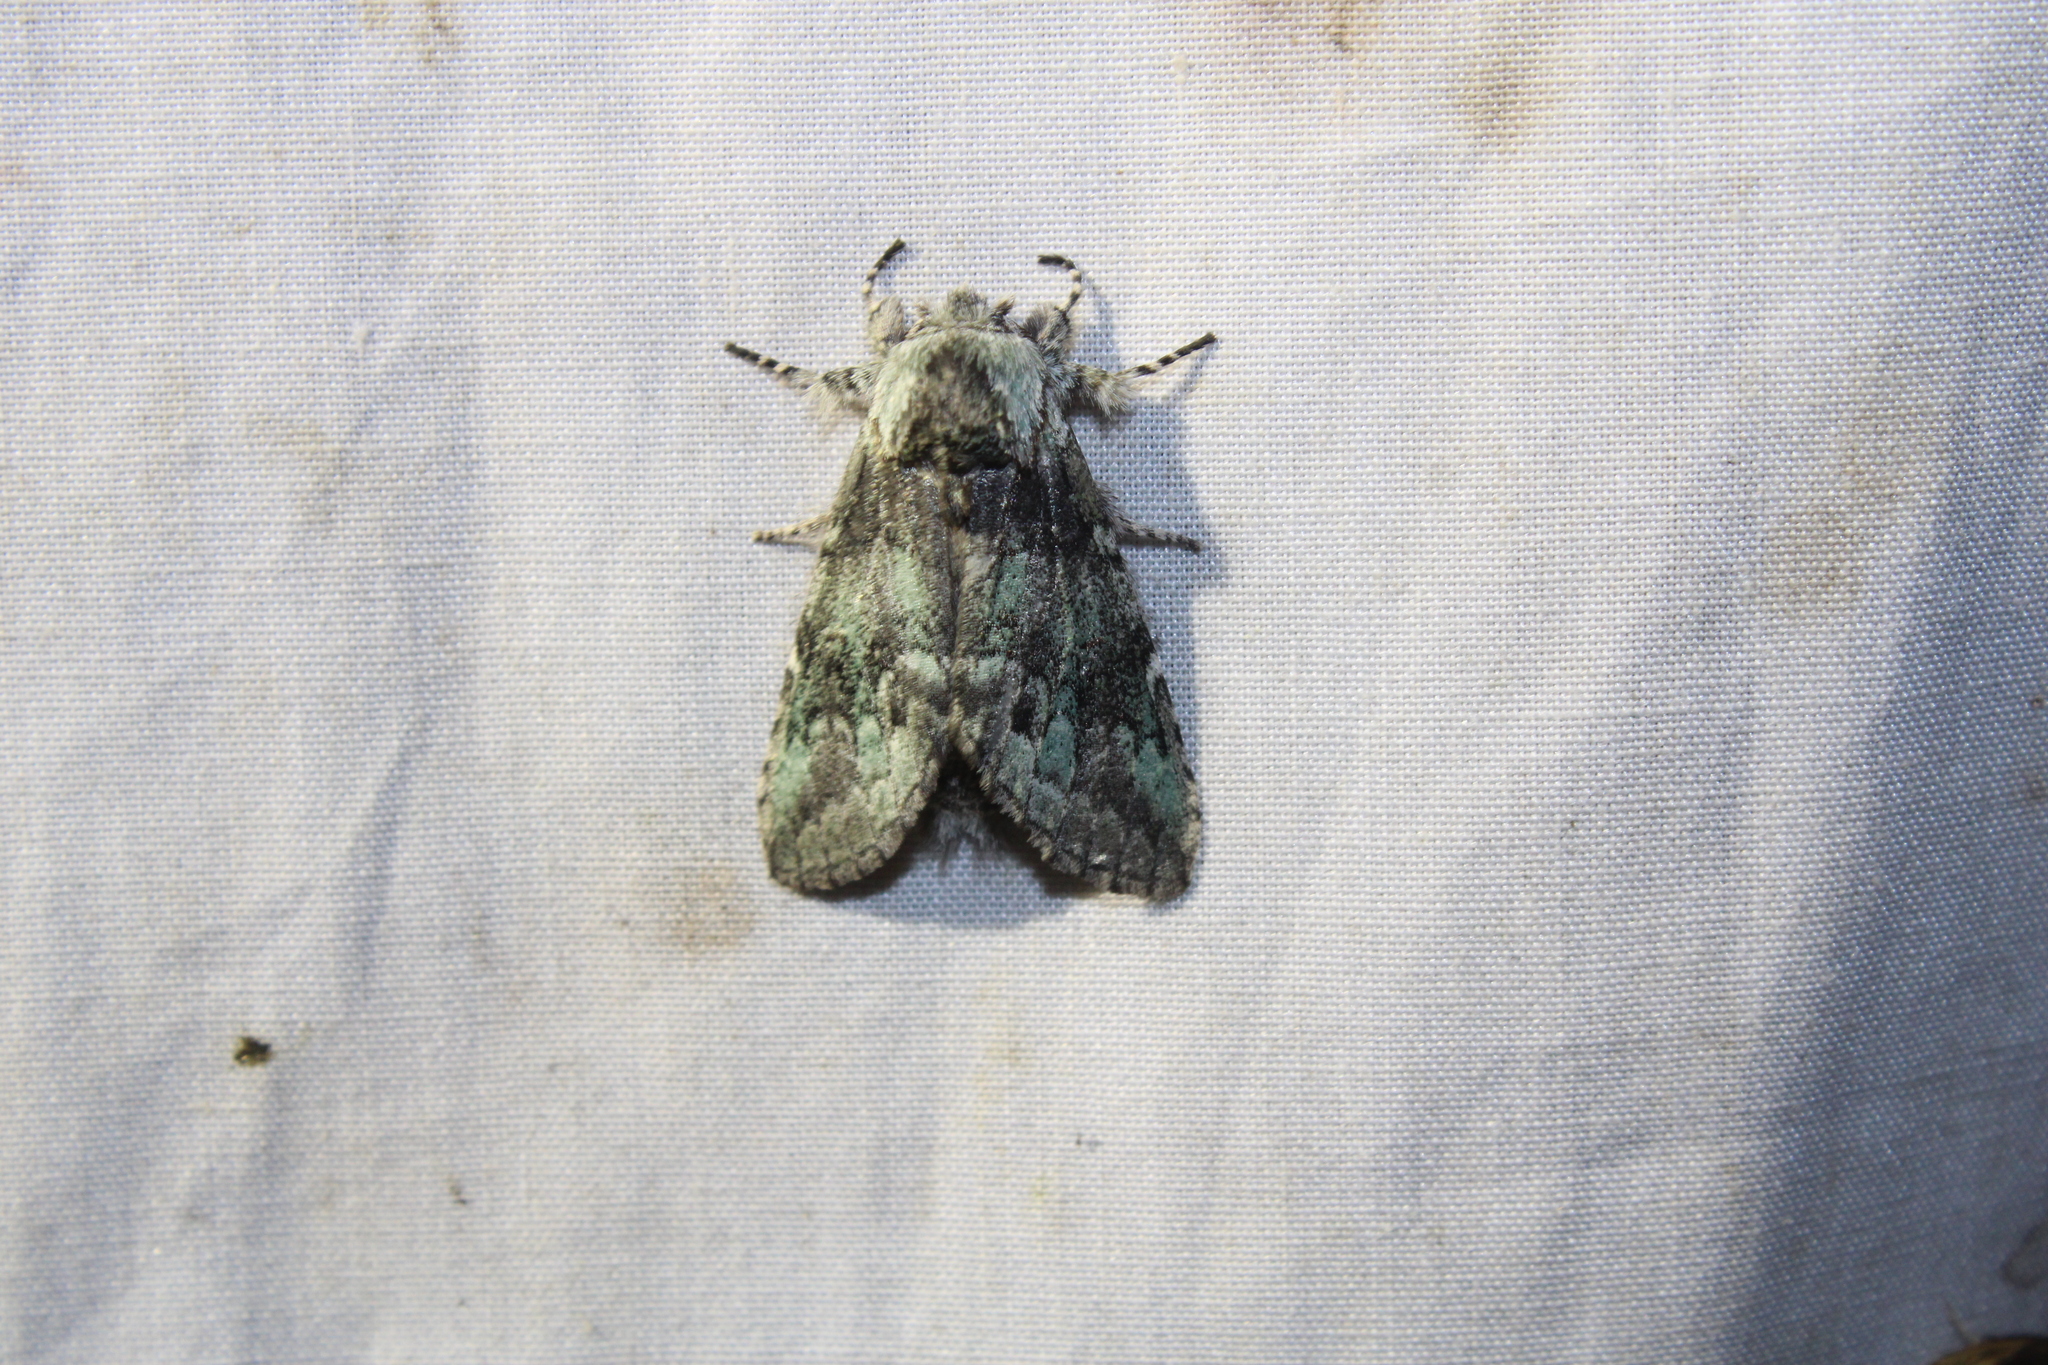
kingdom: Animalia
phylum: Arthropoda
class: Insecta
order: Lepidoptera
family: Notodontidae
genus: Macrurocampa
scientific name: Macrurocampa marthesia
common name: Mottled prominent
